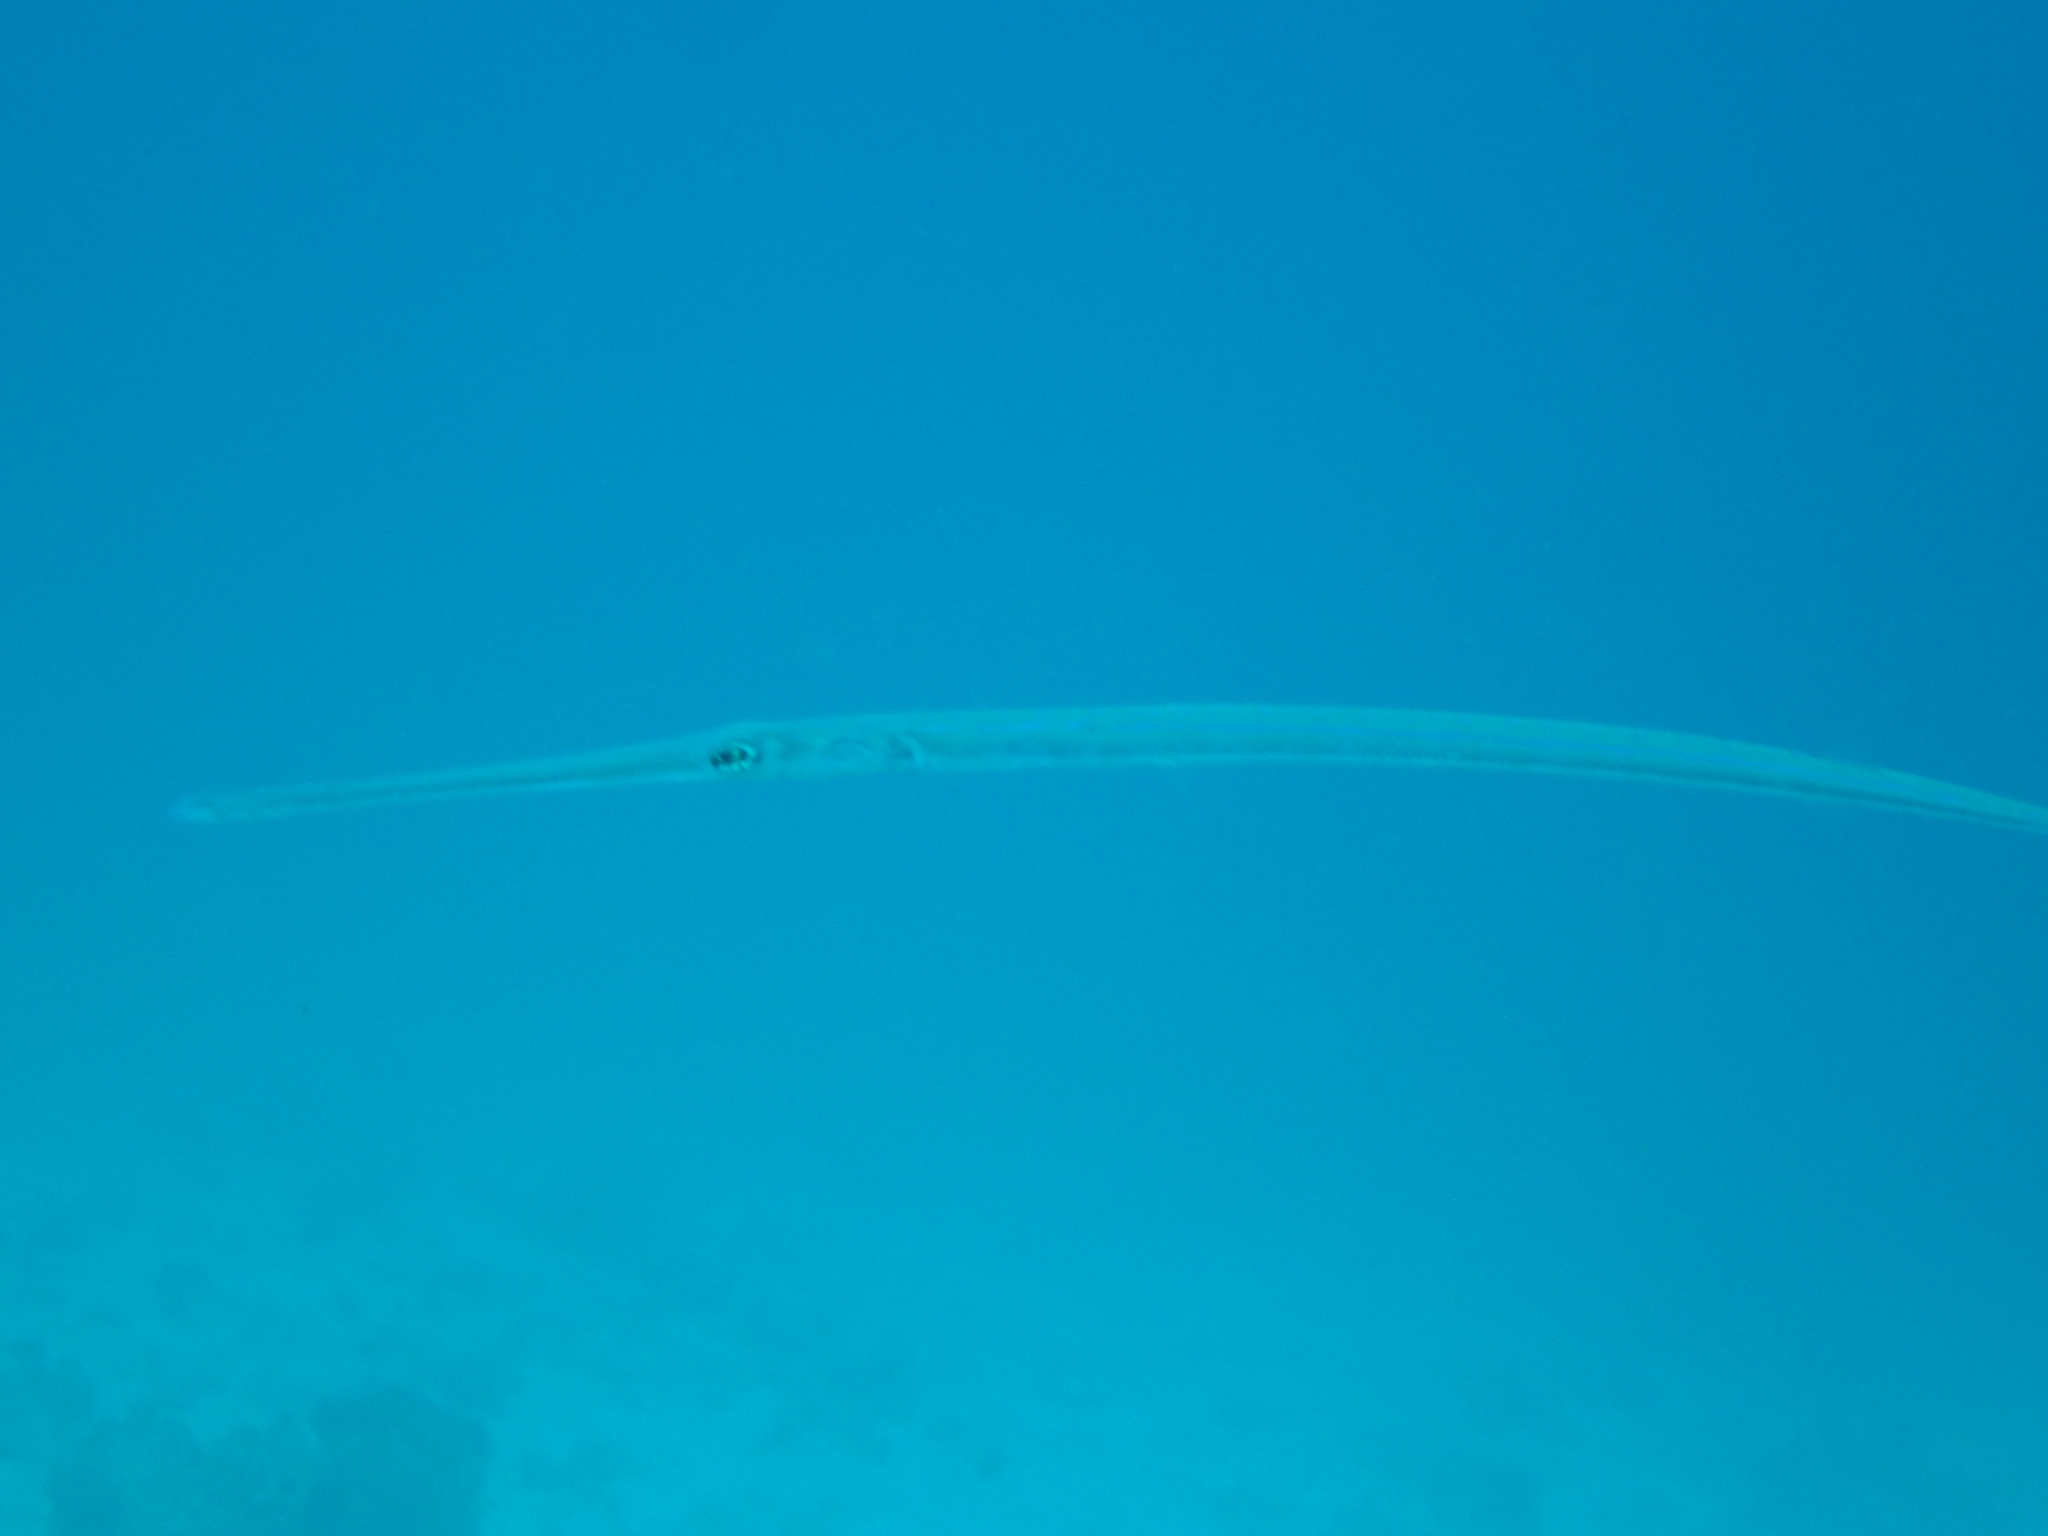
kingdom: Animalia
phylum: Chordata
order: Syngnathiformes
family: Fistulariidae
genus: Fistularia
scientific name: Fistularia commersonii
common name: Bluespotted cornetfish
